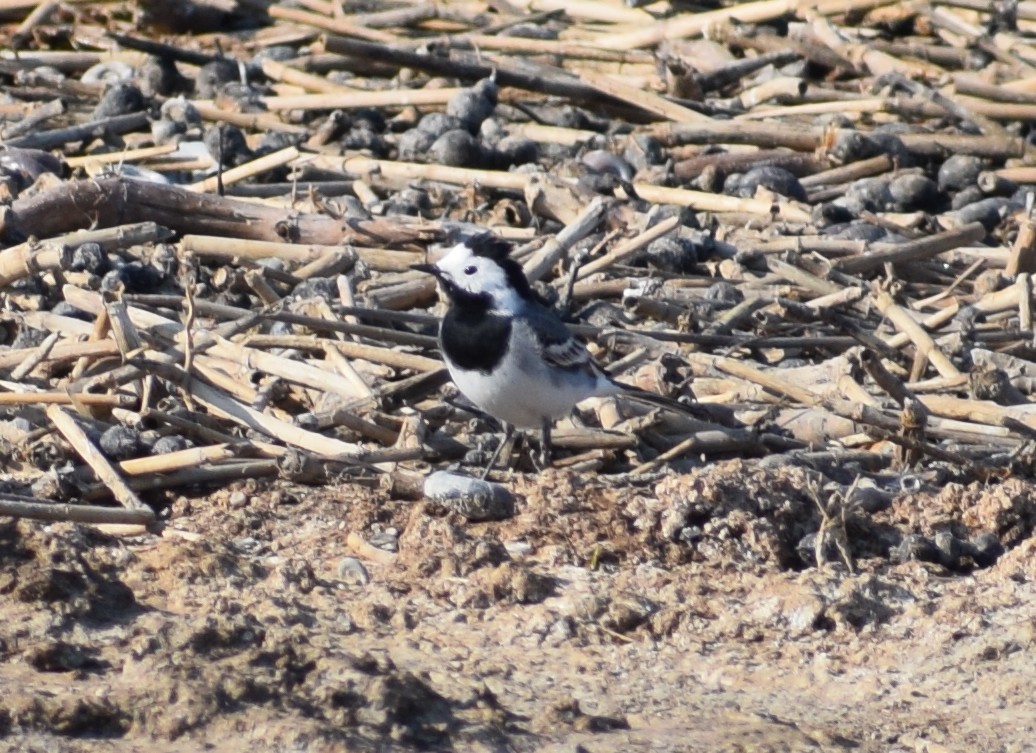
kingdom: Animalia
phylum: Chordata
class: Aves
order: Passeriformes
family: Motacillidae
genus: Motacilla
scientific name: Motacilla alba
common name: White wagtail
